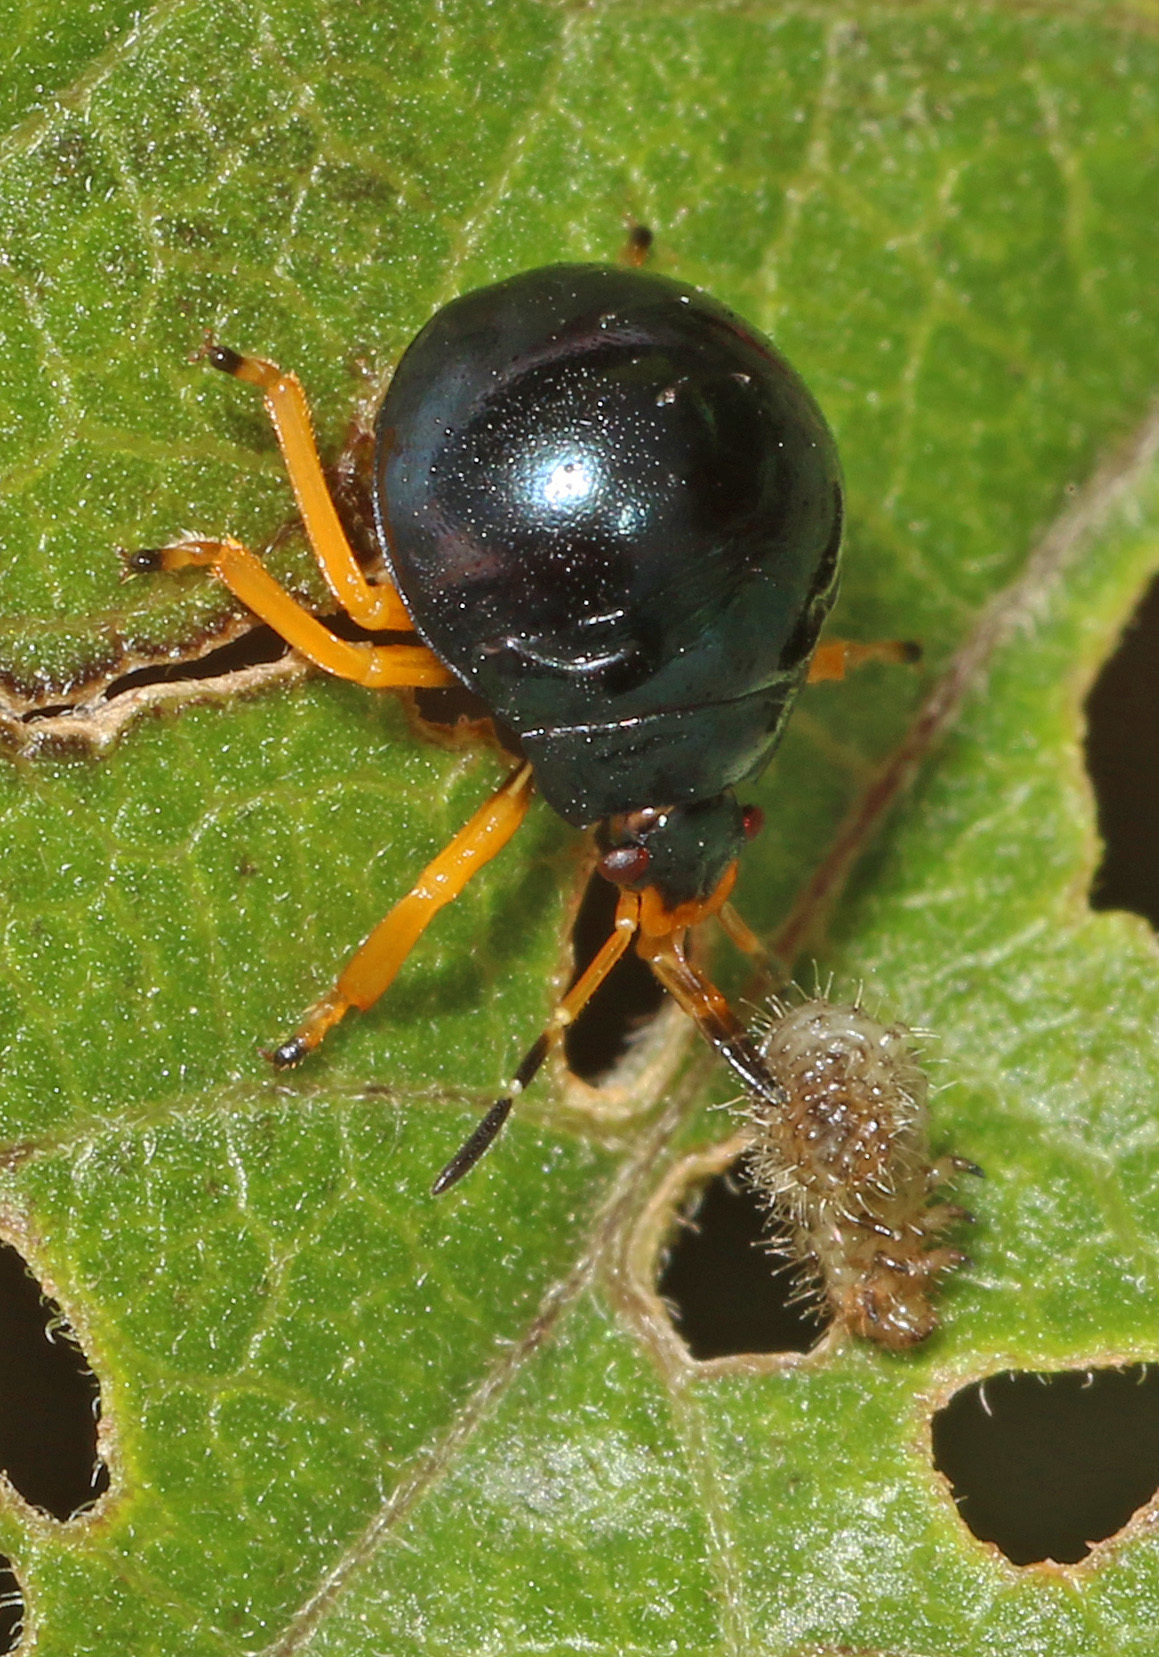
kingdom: Animalia
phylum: Arthropoda
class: Insecta
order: Hemiptera
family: Pentatomidae
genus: Stiretrus
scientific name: Stiretrus anchorago
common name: Anchor stink bug
